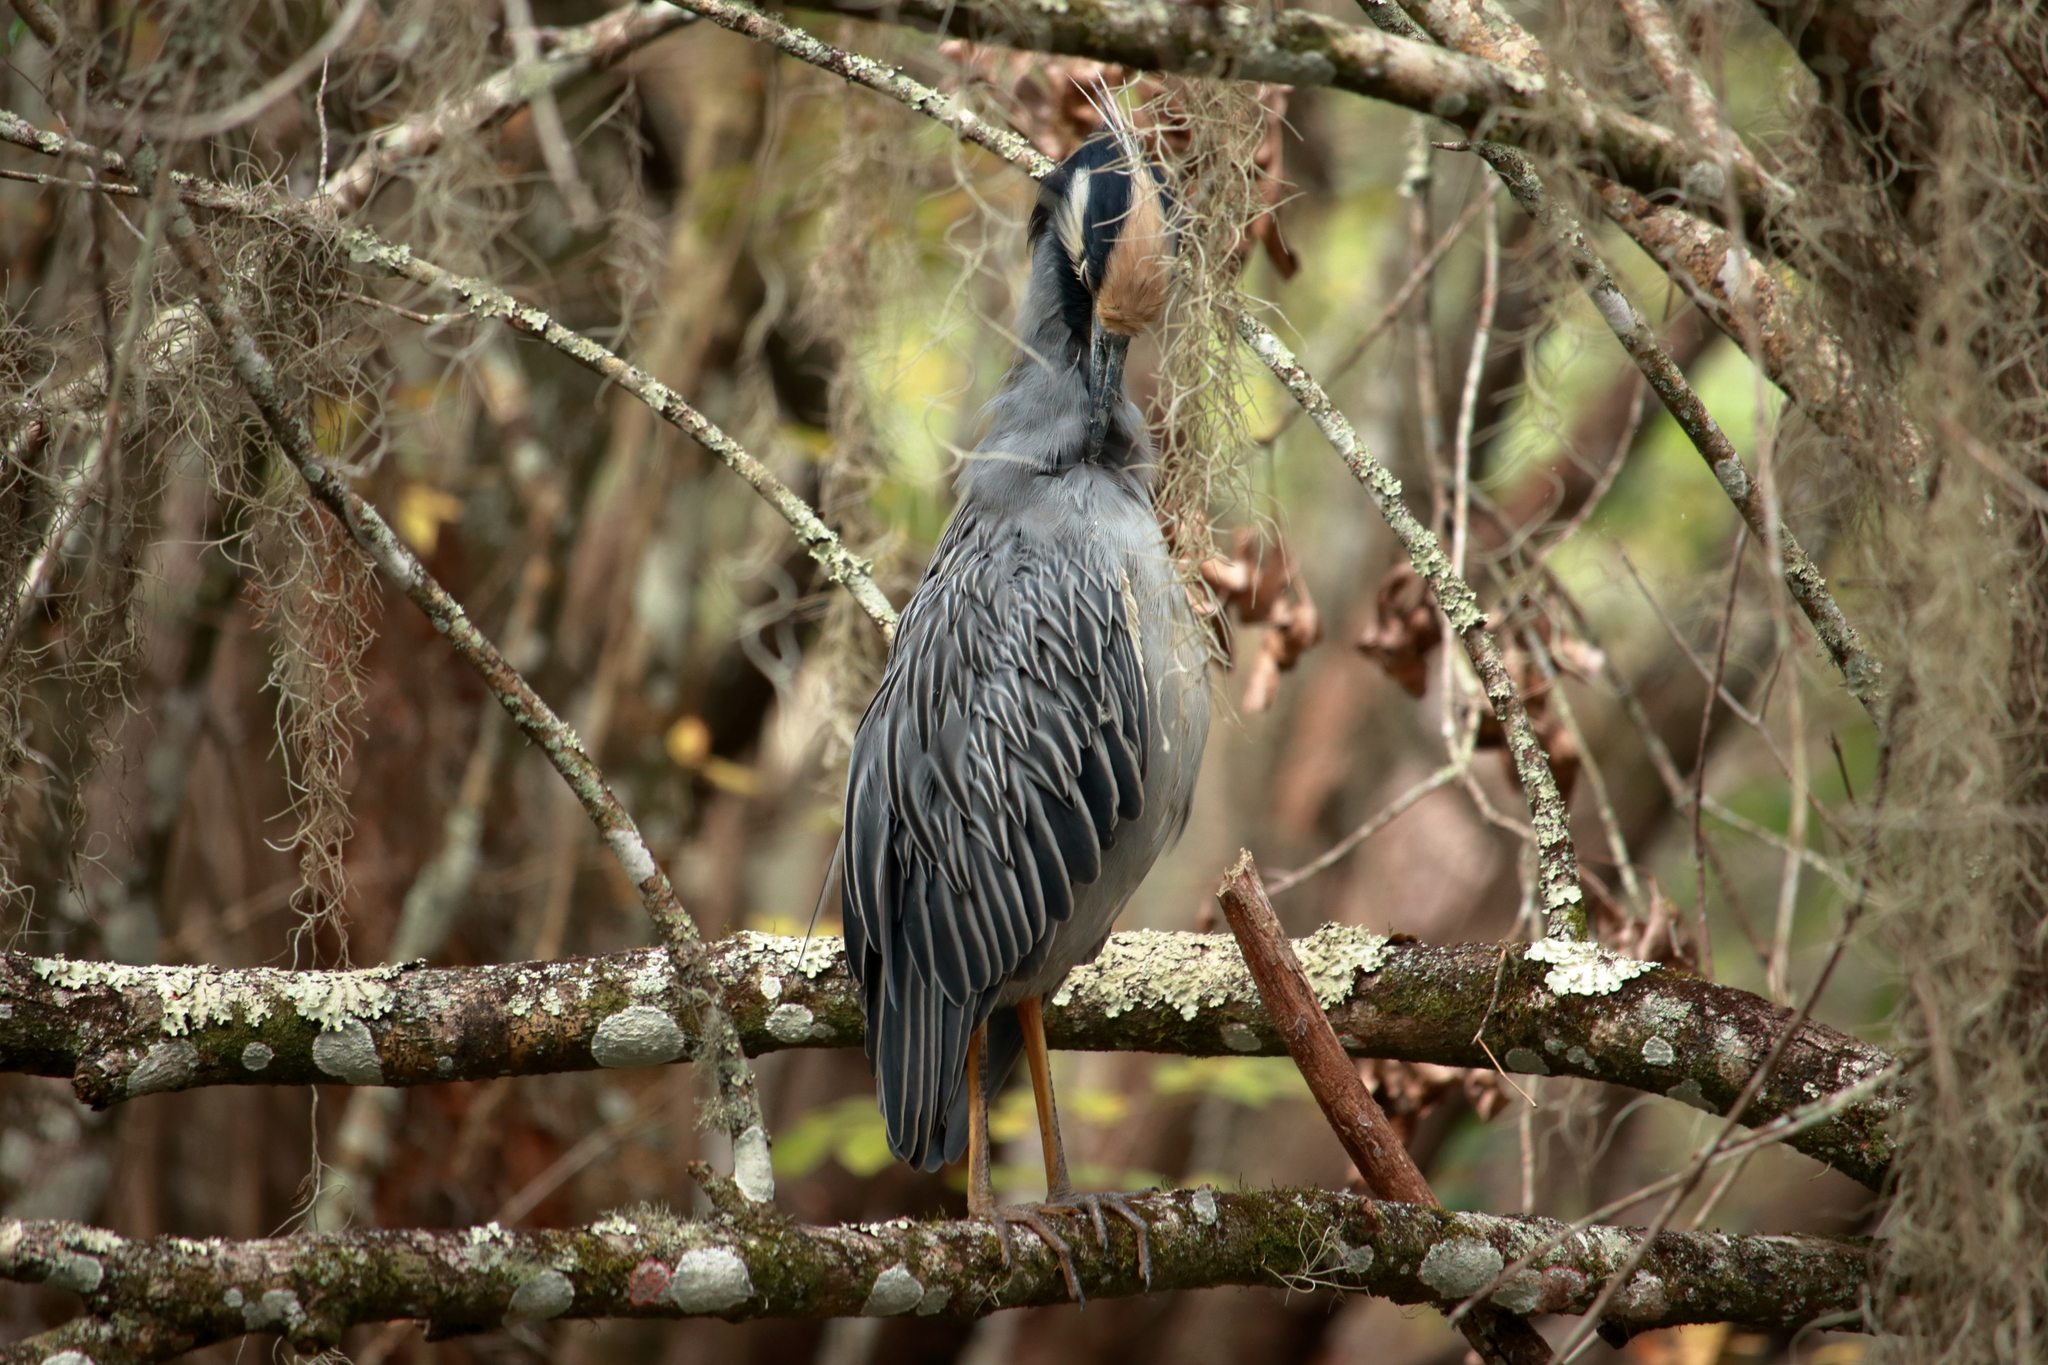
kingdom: Animalia
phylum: Chordata
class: Aves
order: Pelecaniformes
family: Ardeidae
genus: Nyctanassa
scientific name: Nyctanassa violacea
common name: Yellow-crowned night heron
